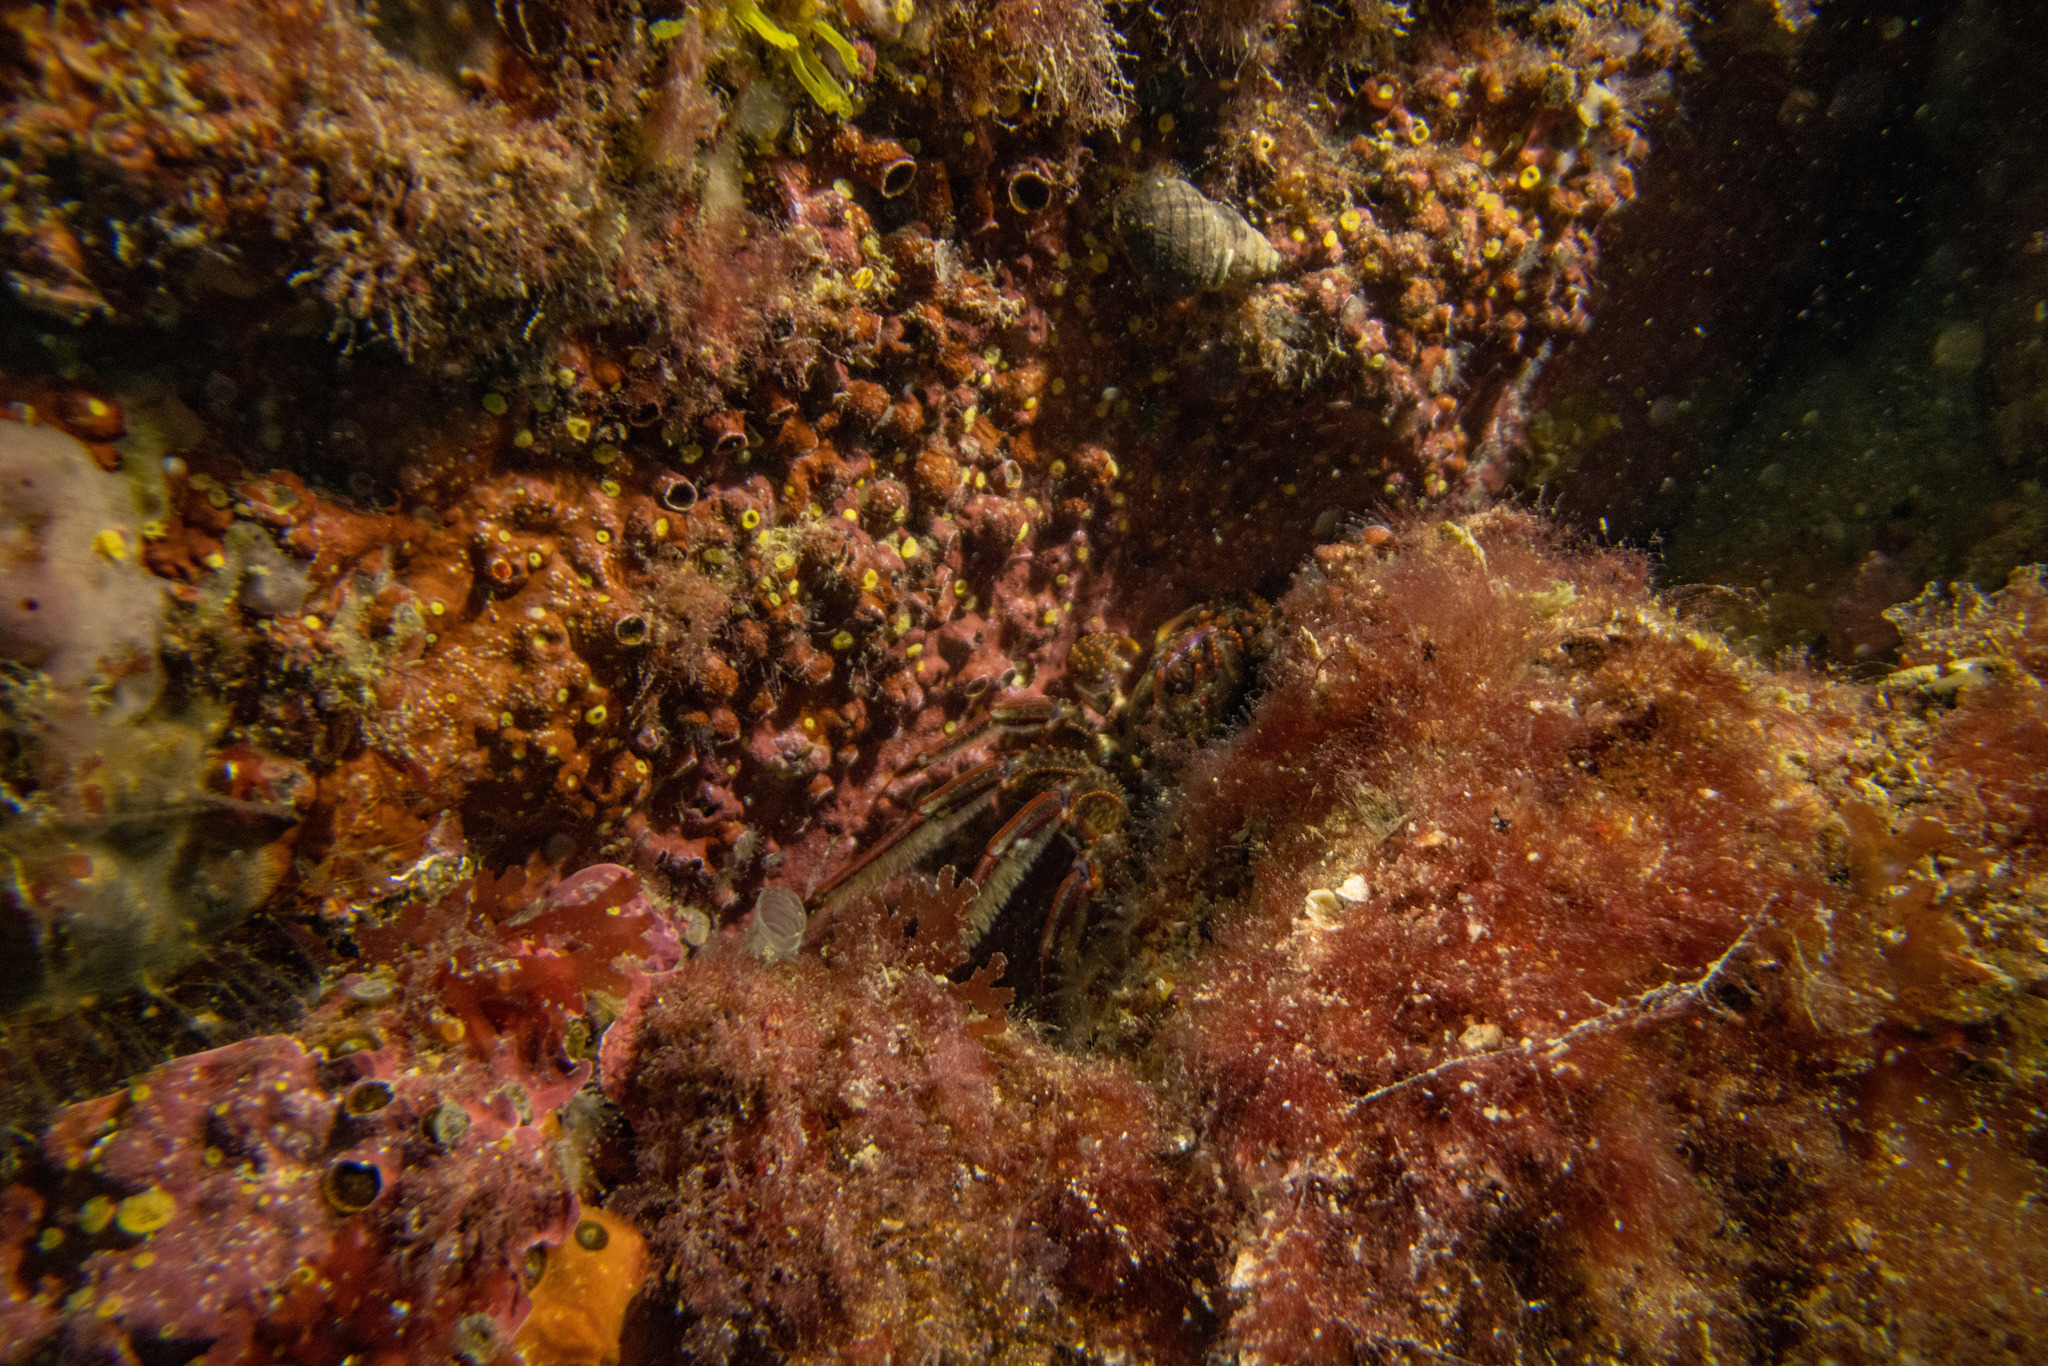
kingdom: Animalia
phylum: Arthropoda
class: Malacostraca
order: Decapoda
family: Plagusiidae
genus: Guinusia
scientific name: Guinusia chabrus
